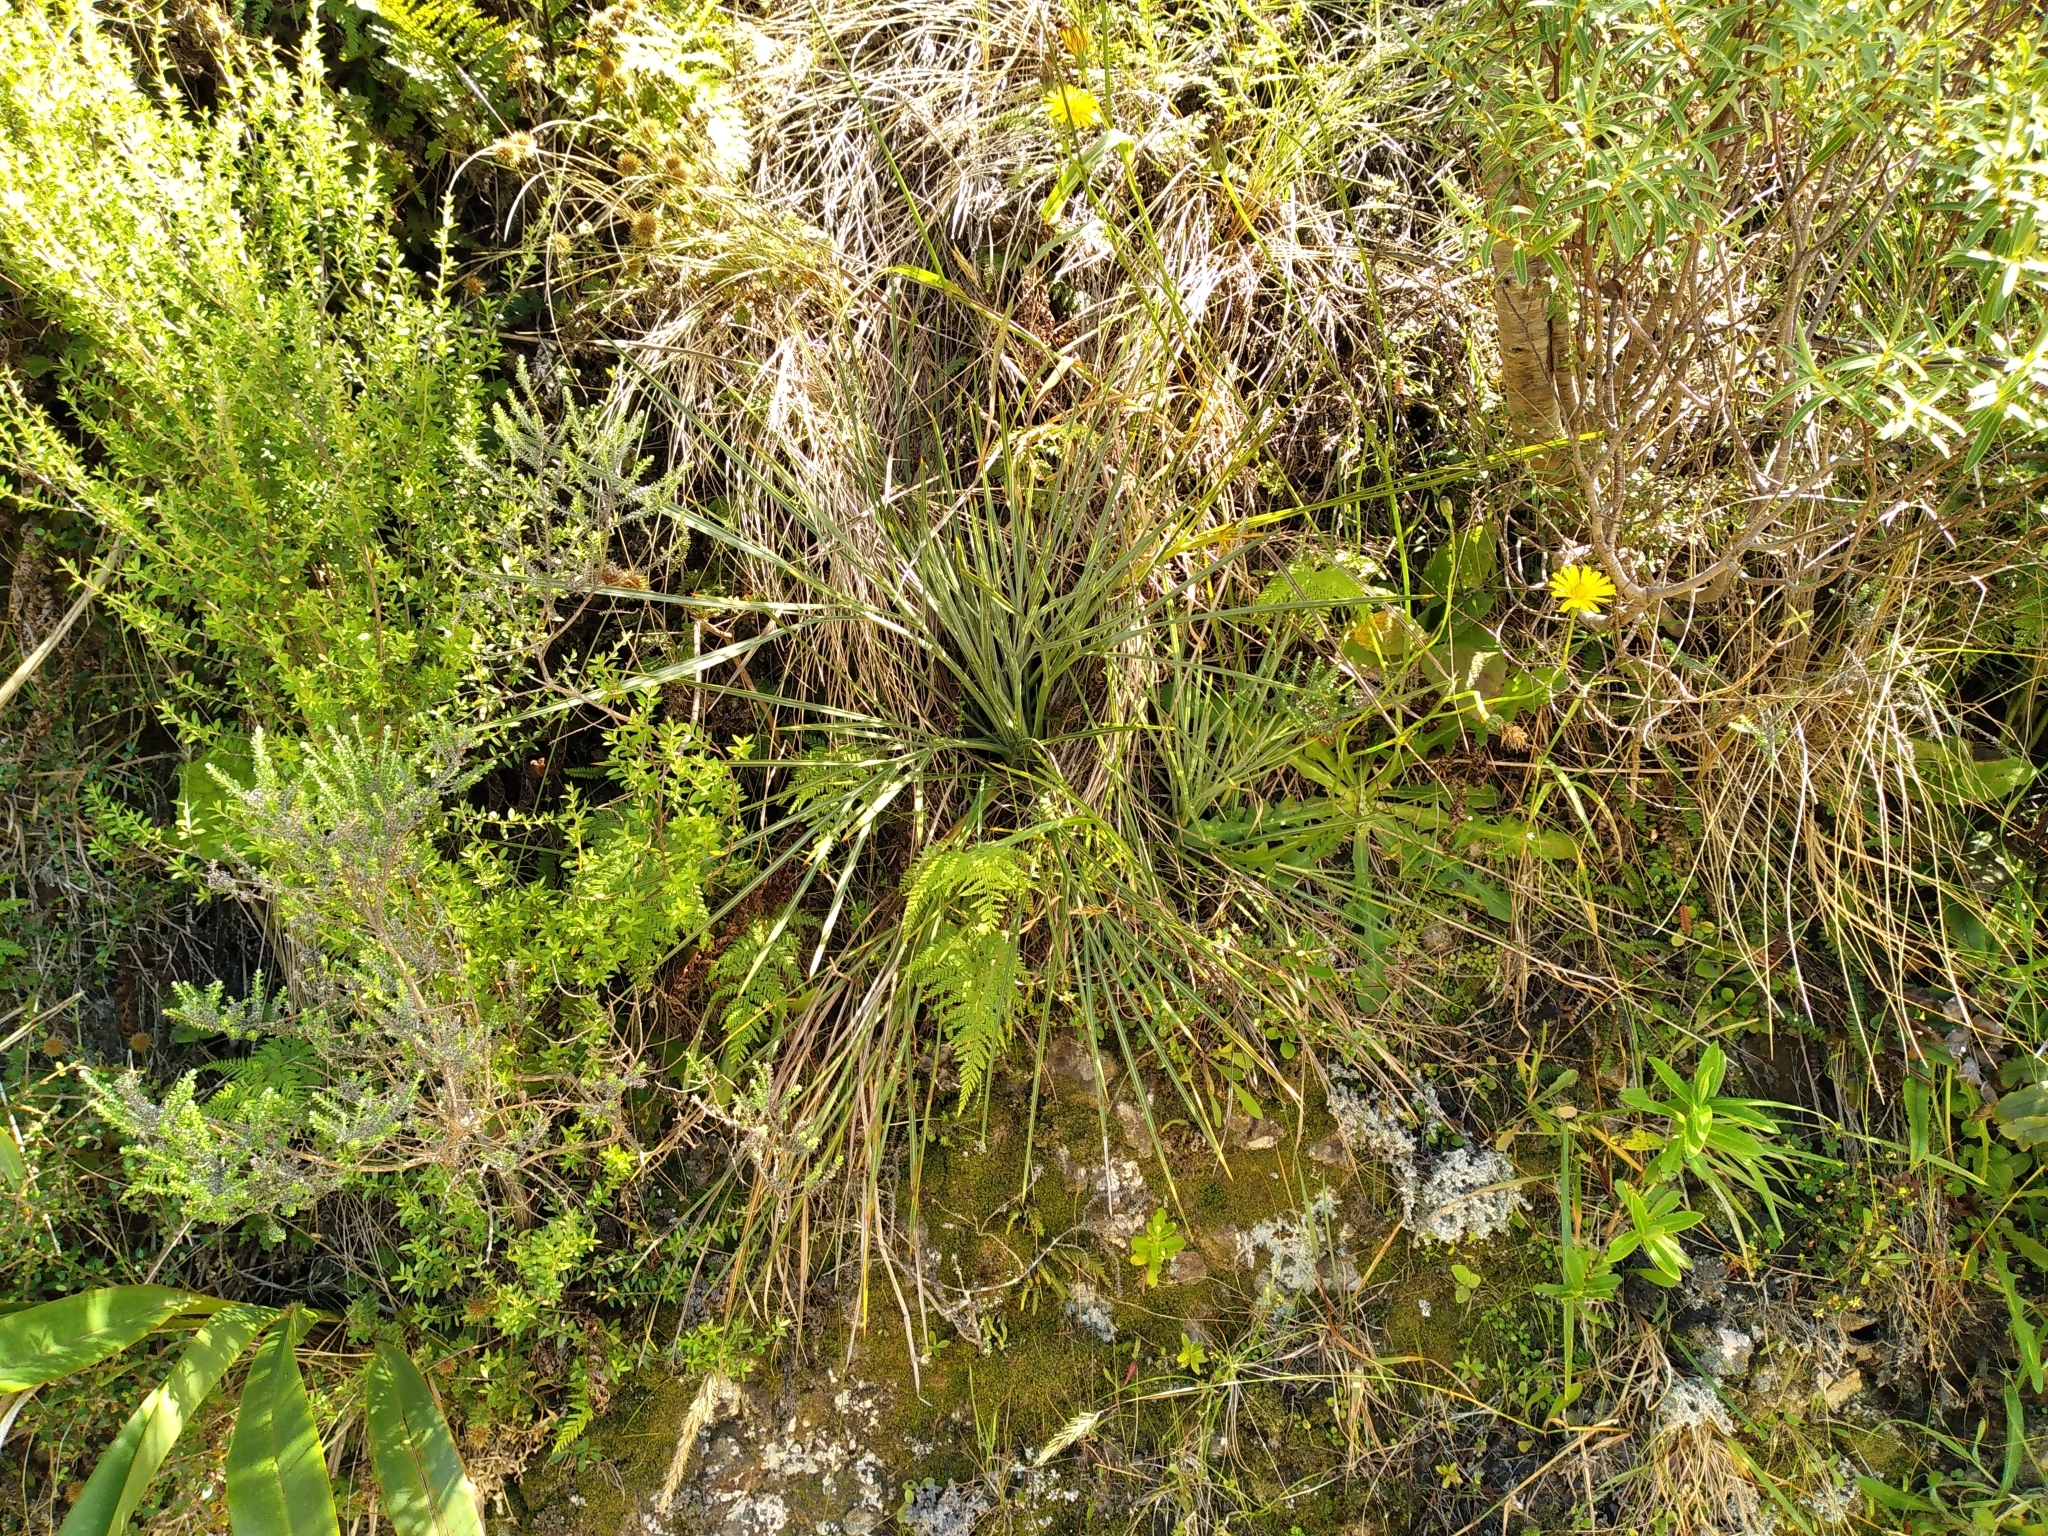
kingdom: Plantae
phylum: Tracheophyta
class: Magnoliopsida
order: Apiales
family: Apiaceae
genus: Aciphylla
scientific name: Aciphylla squarrosa
